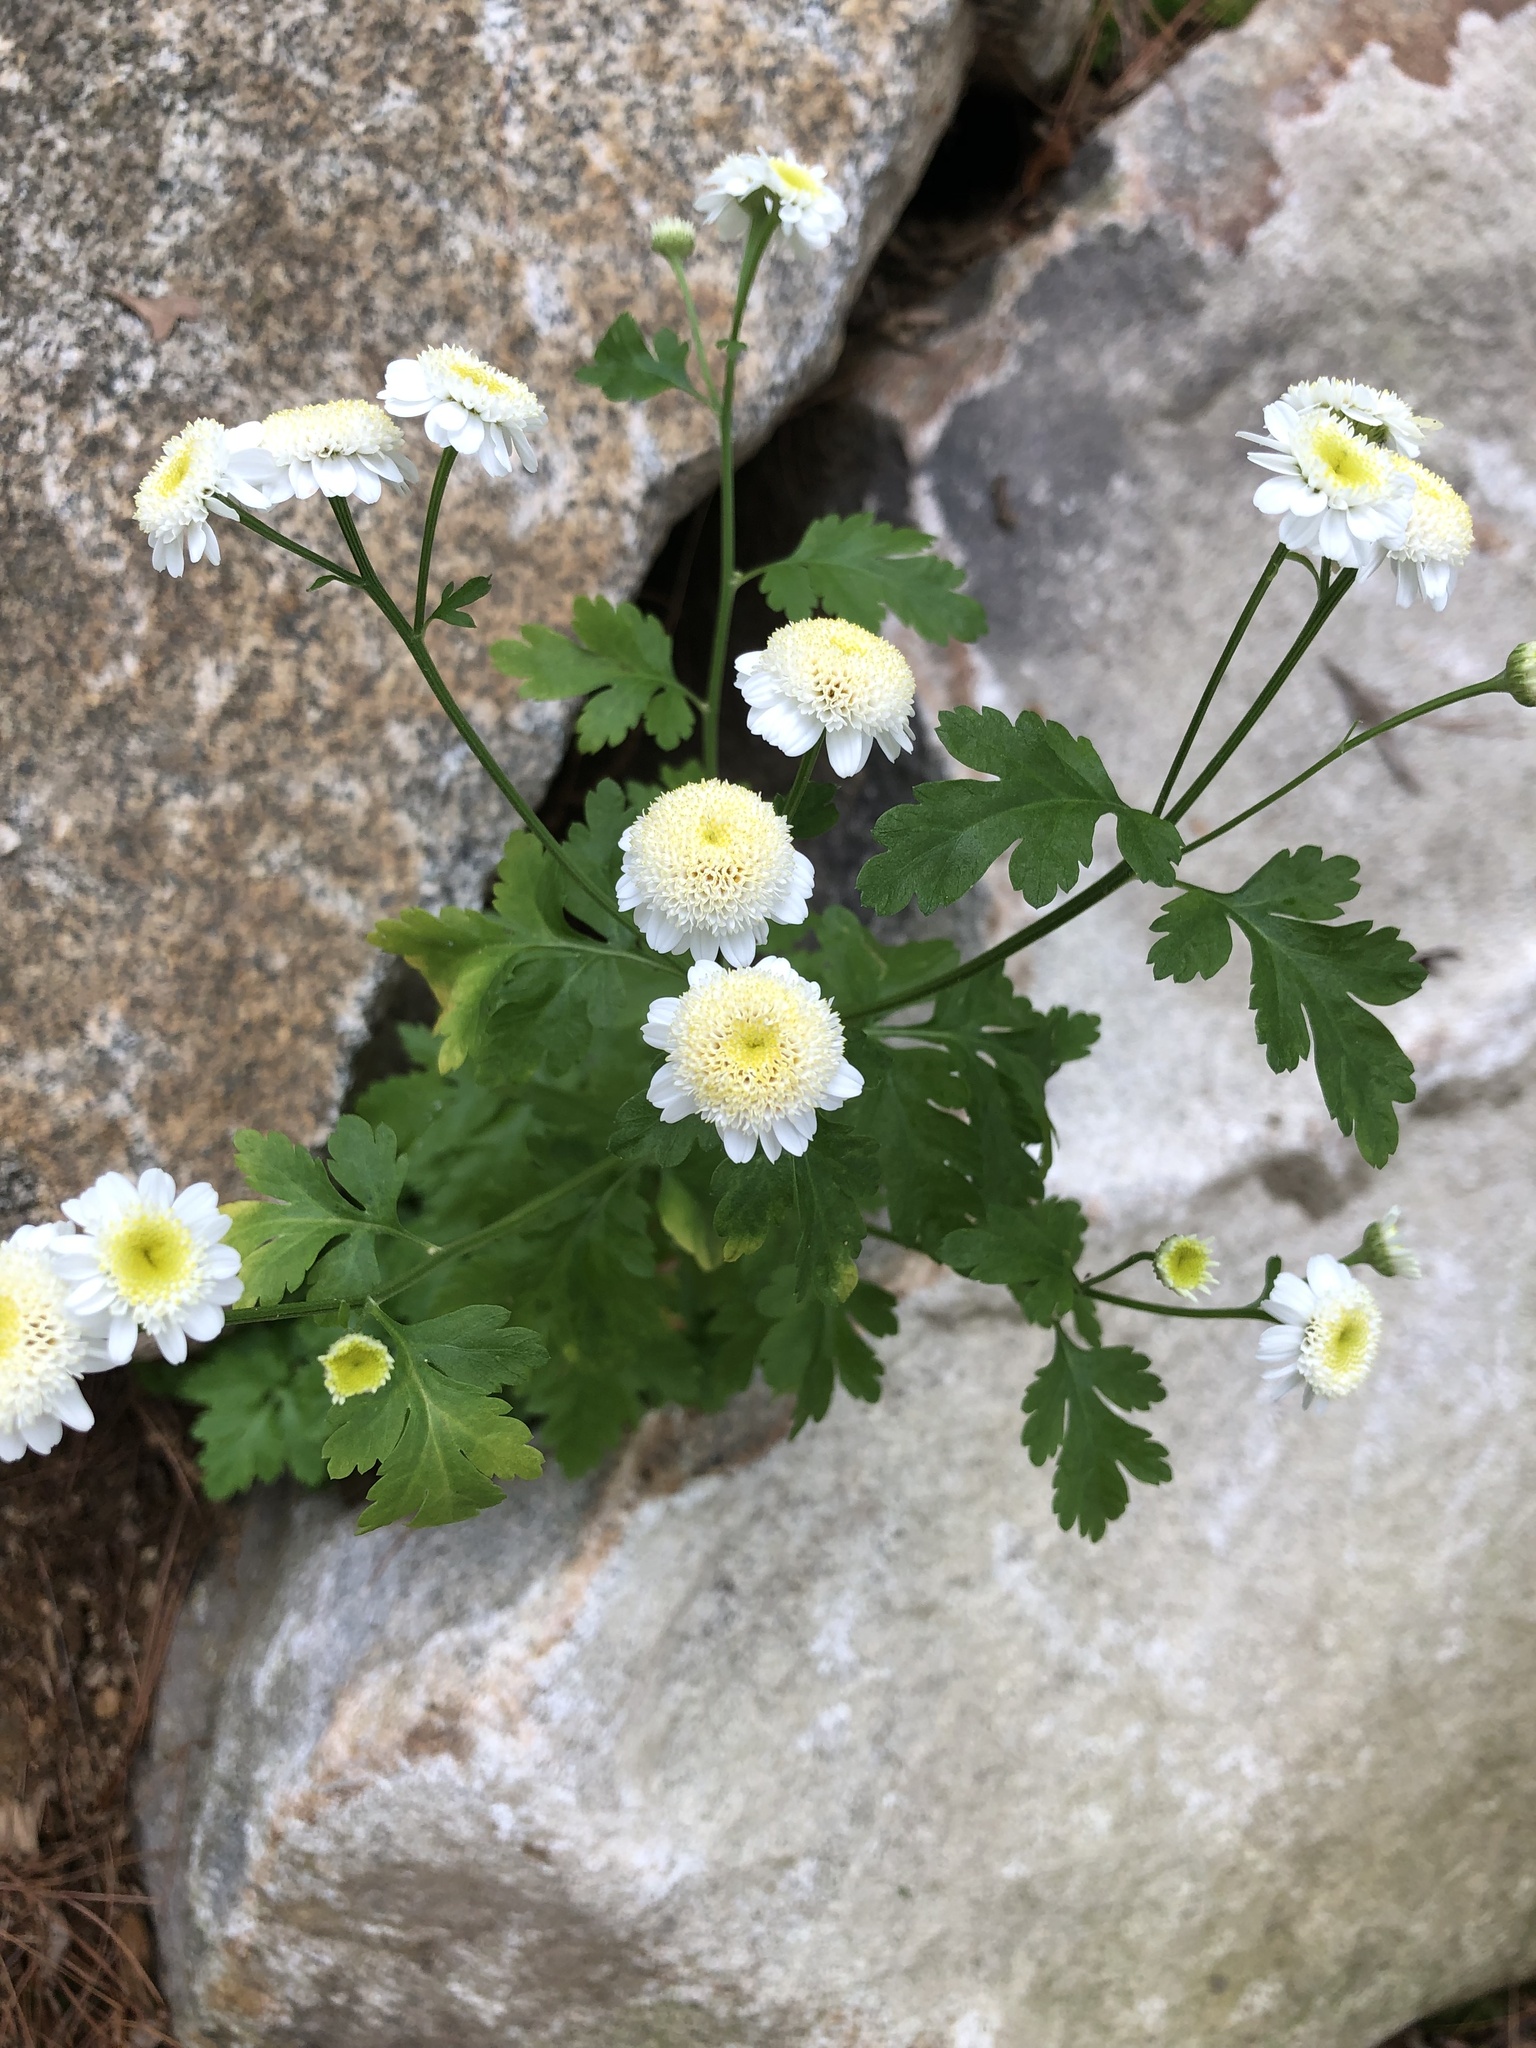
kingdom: Plantae
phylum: Tracheophyta
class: Magnoliopsida
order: Asterales
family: Asteraceae
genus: Tanacetum
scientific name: Tanacetum parthenium
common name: Feverfew
